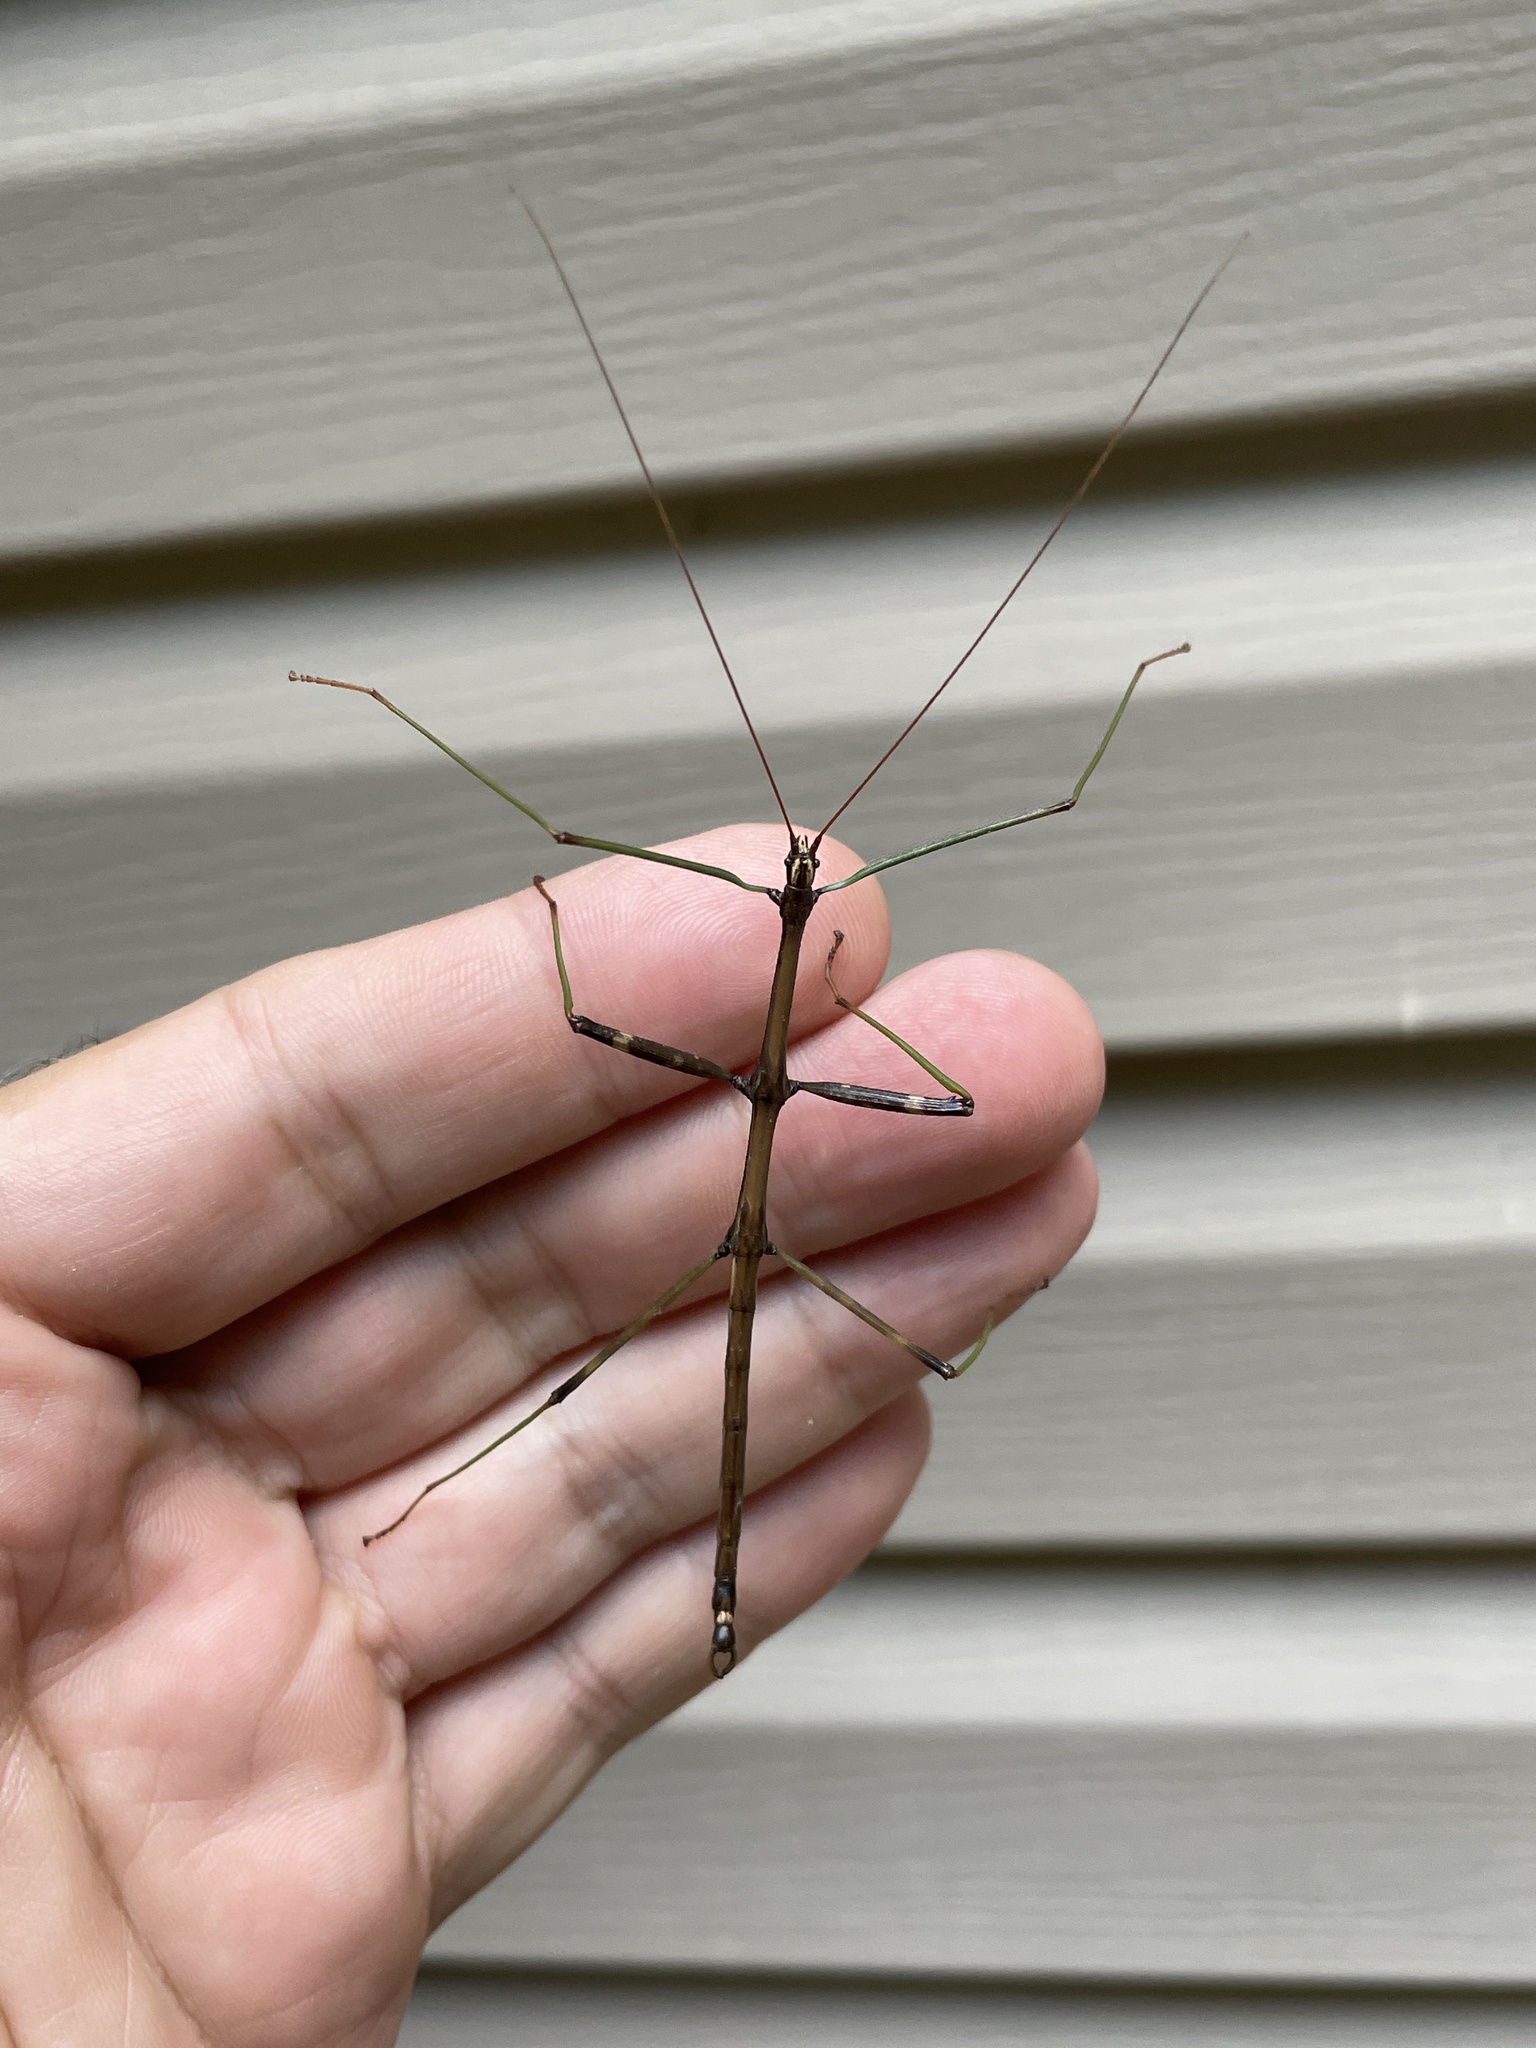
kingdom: Animalia
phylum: Arthropoda
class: Insecta
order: Phasmida
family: Diapheromeridae
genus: Diapheromera
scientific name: Diapheromera femorata
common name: Common american walkingstick
